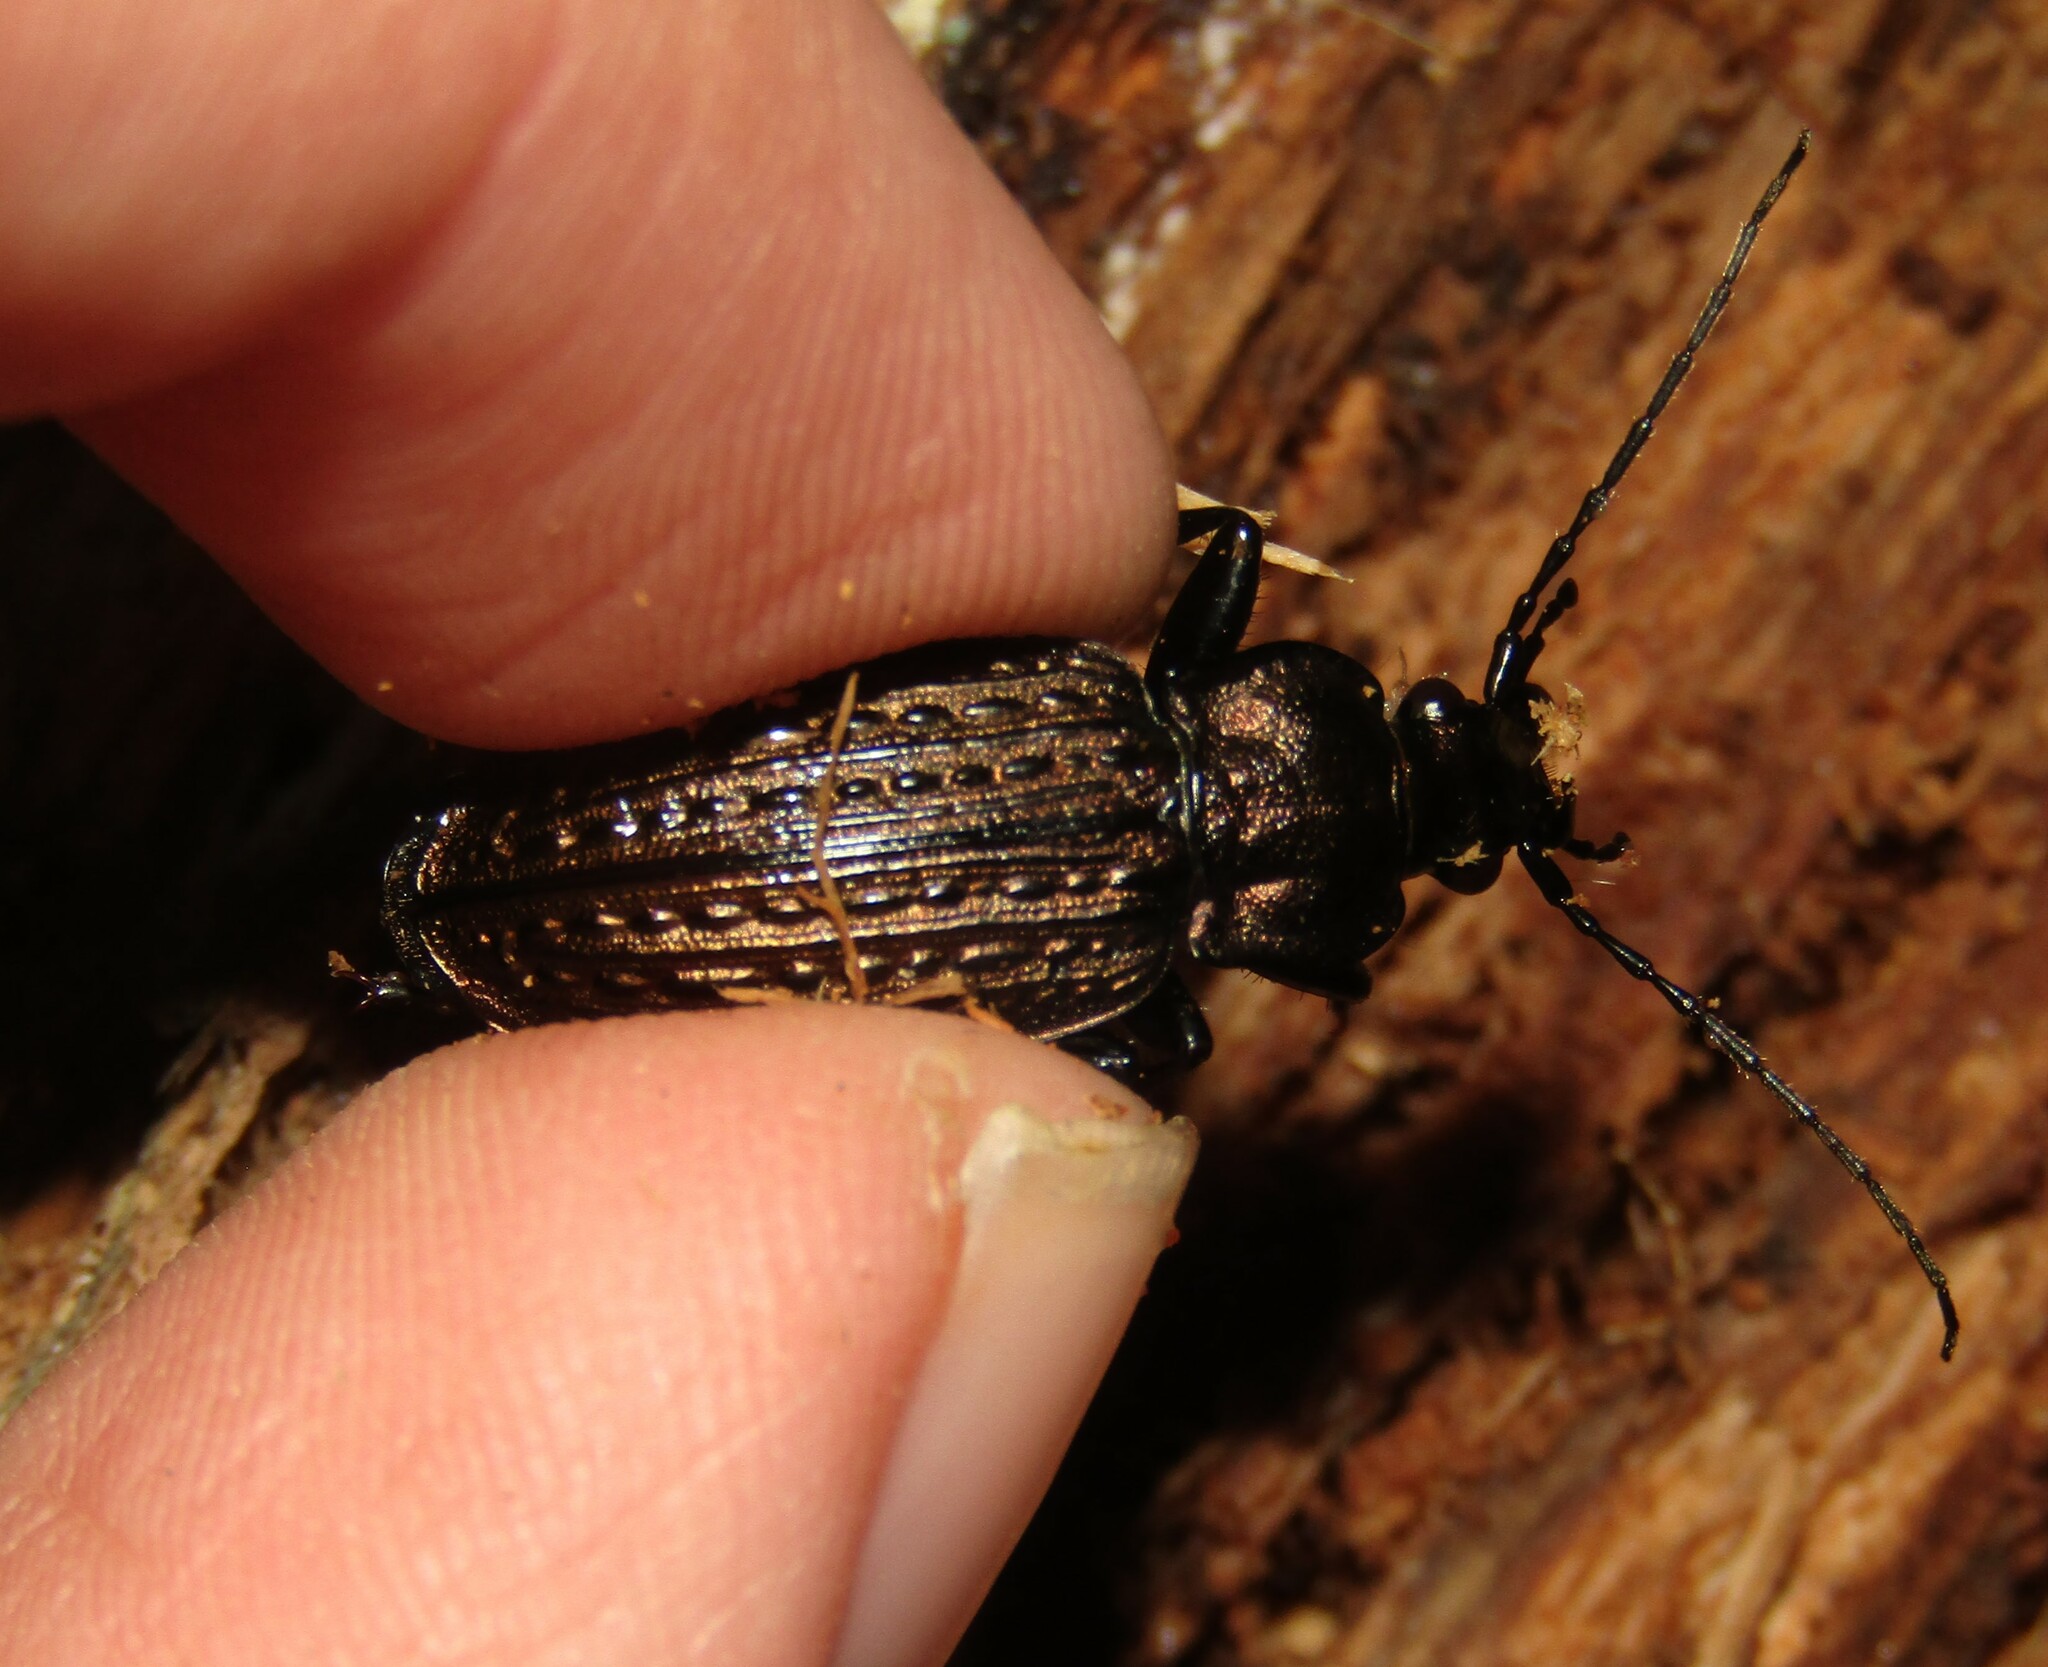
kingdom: Animalia
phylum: Arthropoda
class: Insecta
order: Coleoptera
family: Carabidae
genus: Carabus
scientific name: Carabus granulatus
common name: Granulate ground beetle
